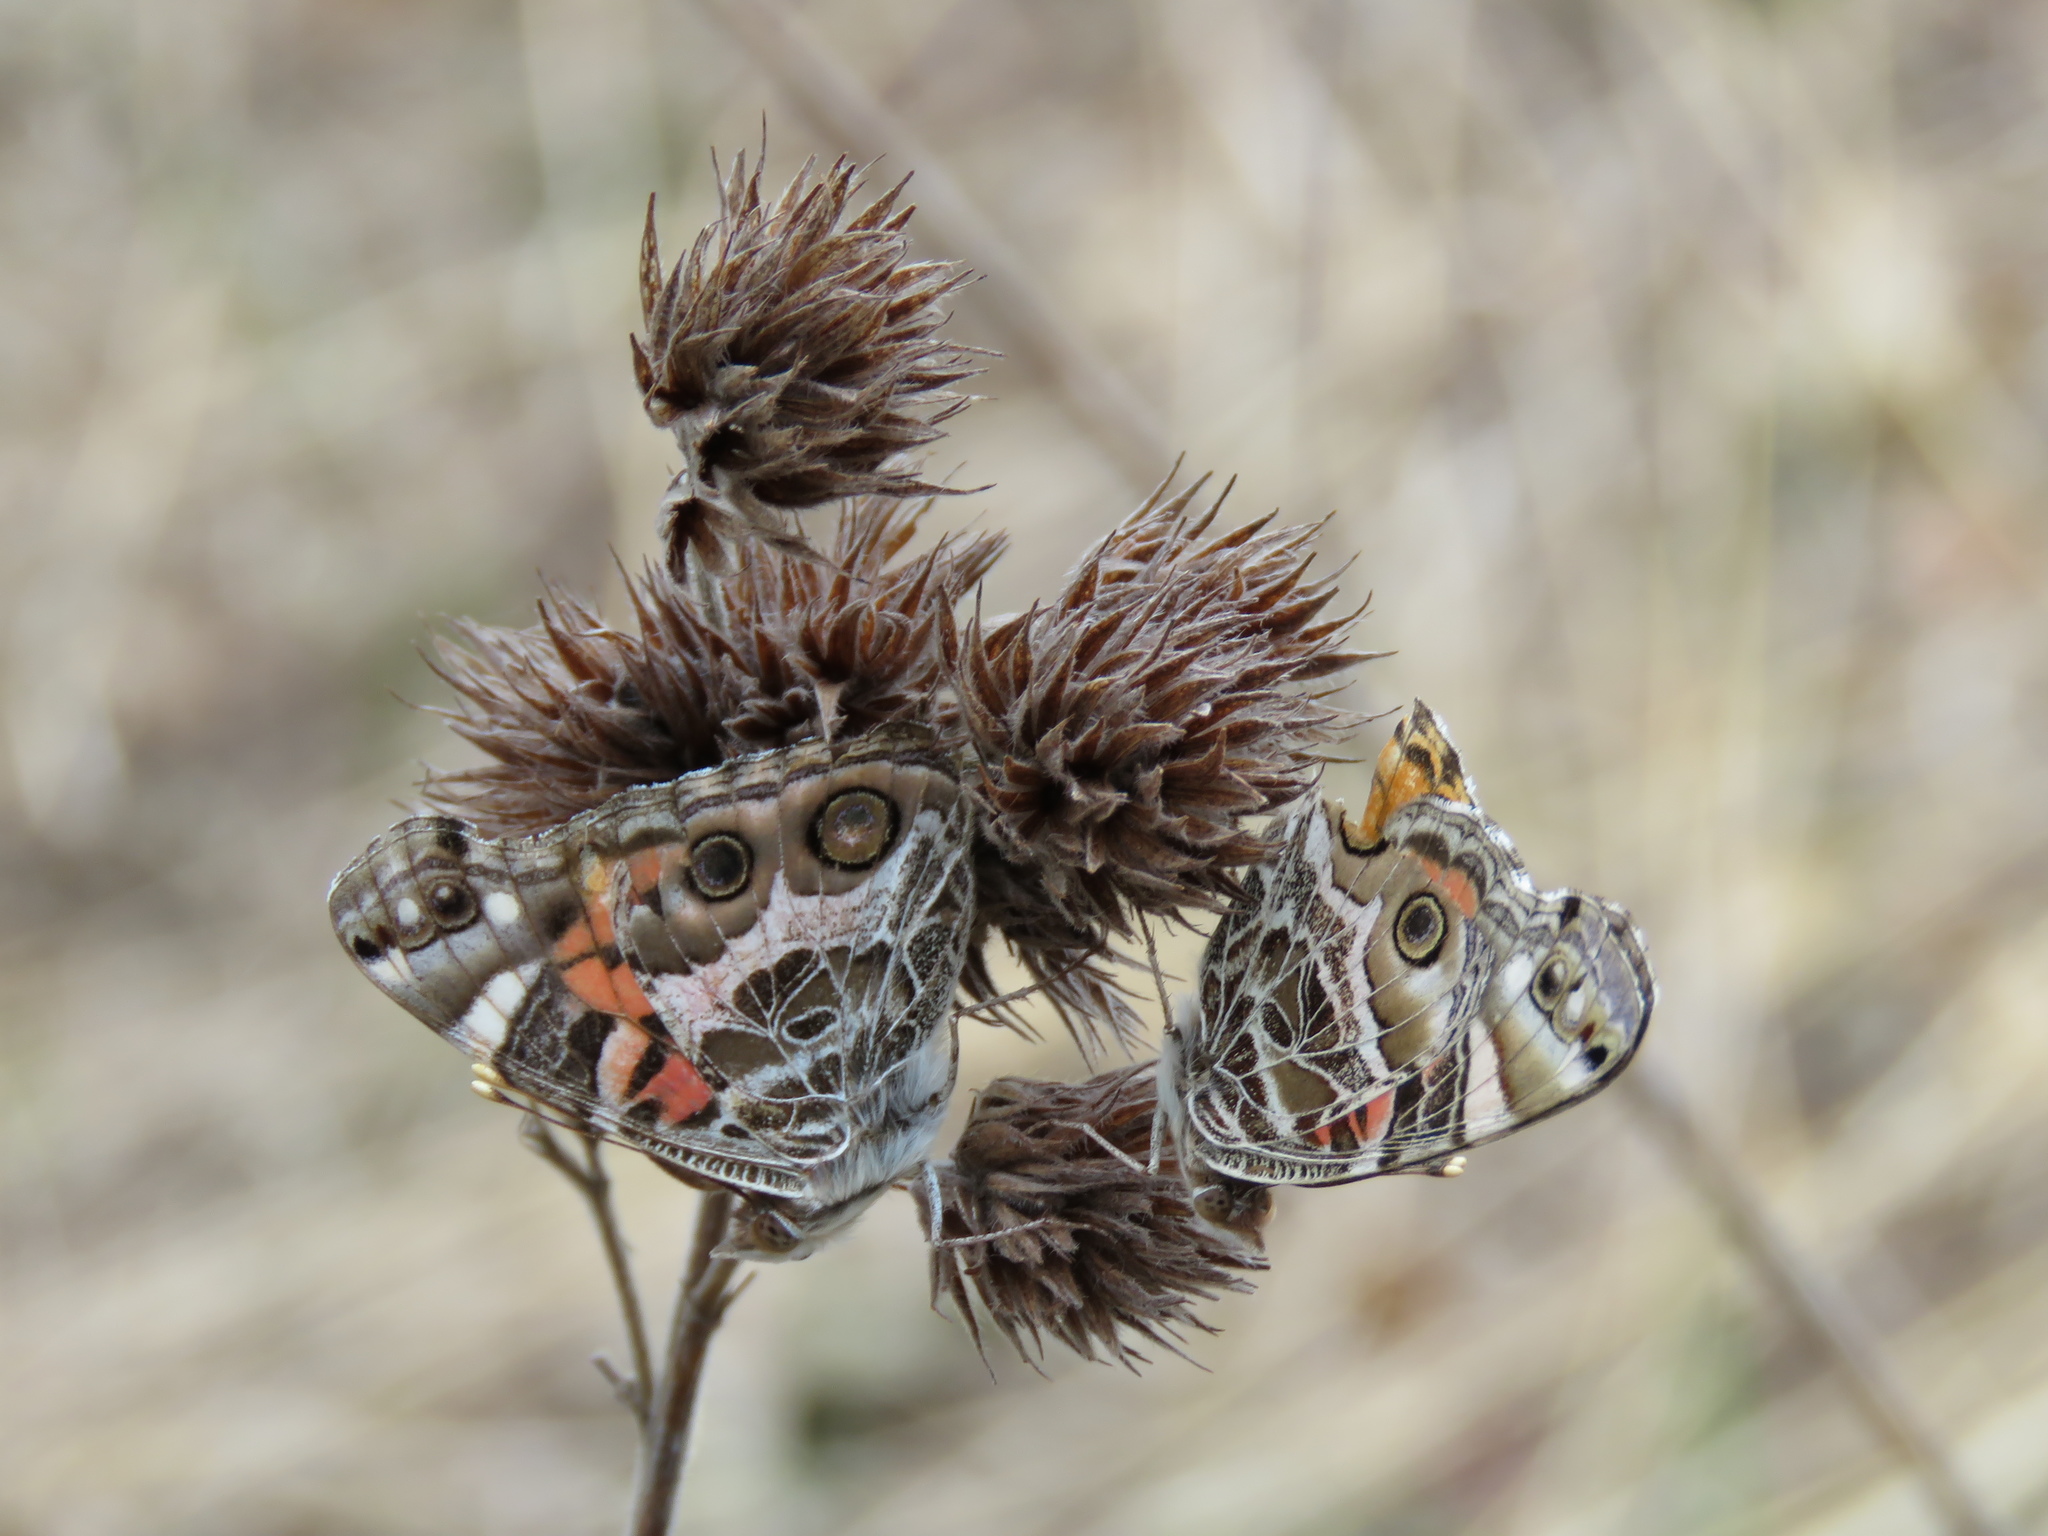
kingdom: Animalia
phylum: Arthropoda
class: Insecta
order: Lepidoptera
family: Nymphalidae
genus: Vanessa
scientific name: Vanessa virginiensis
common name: American lady
